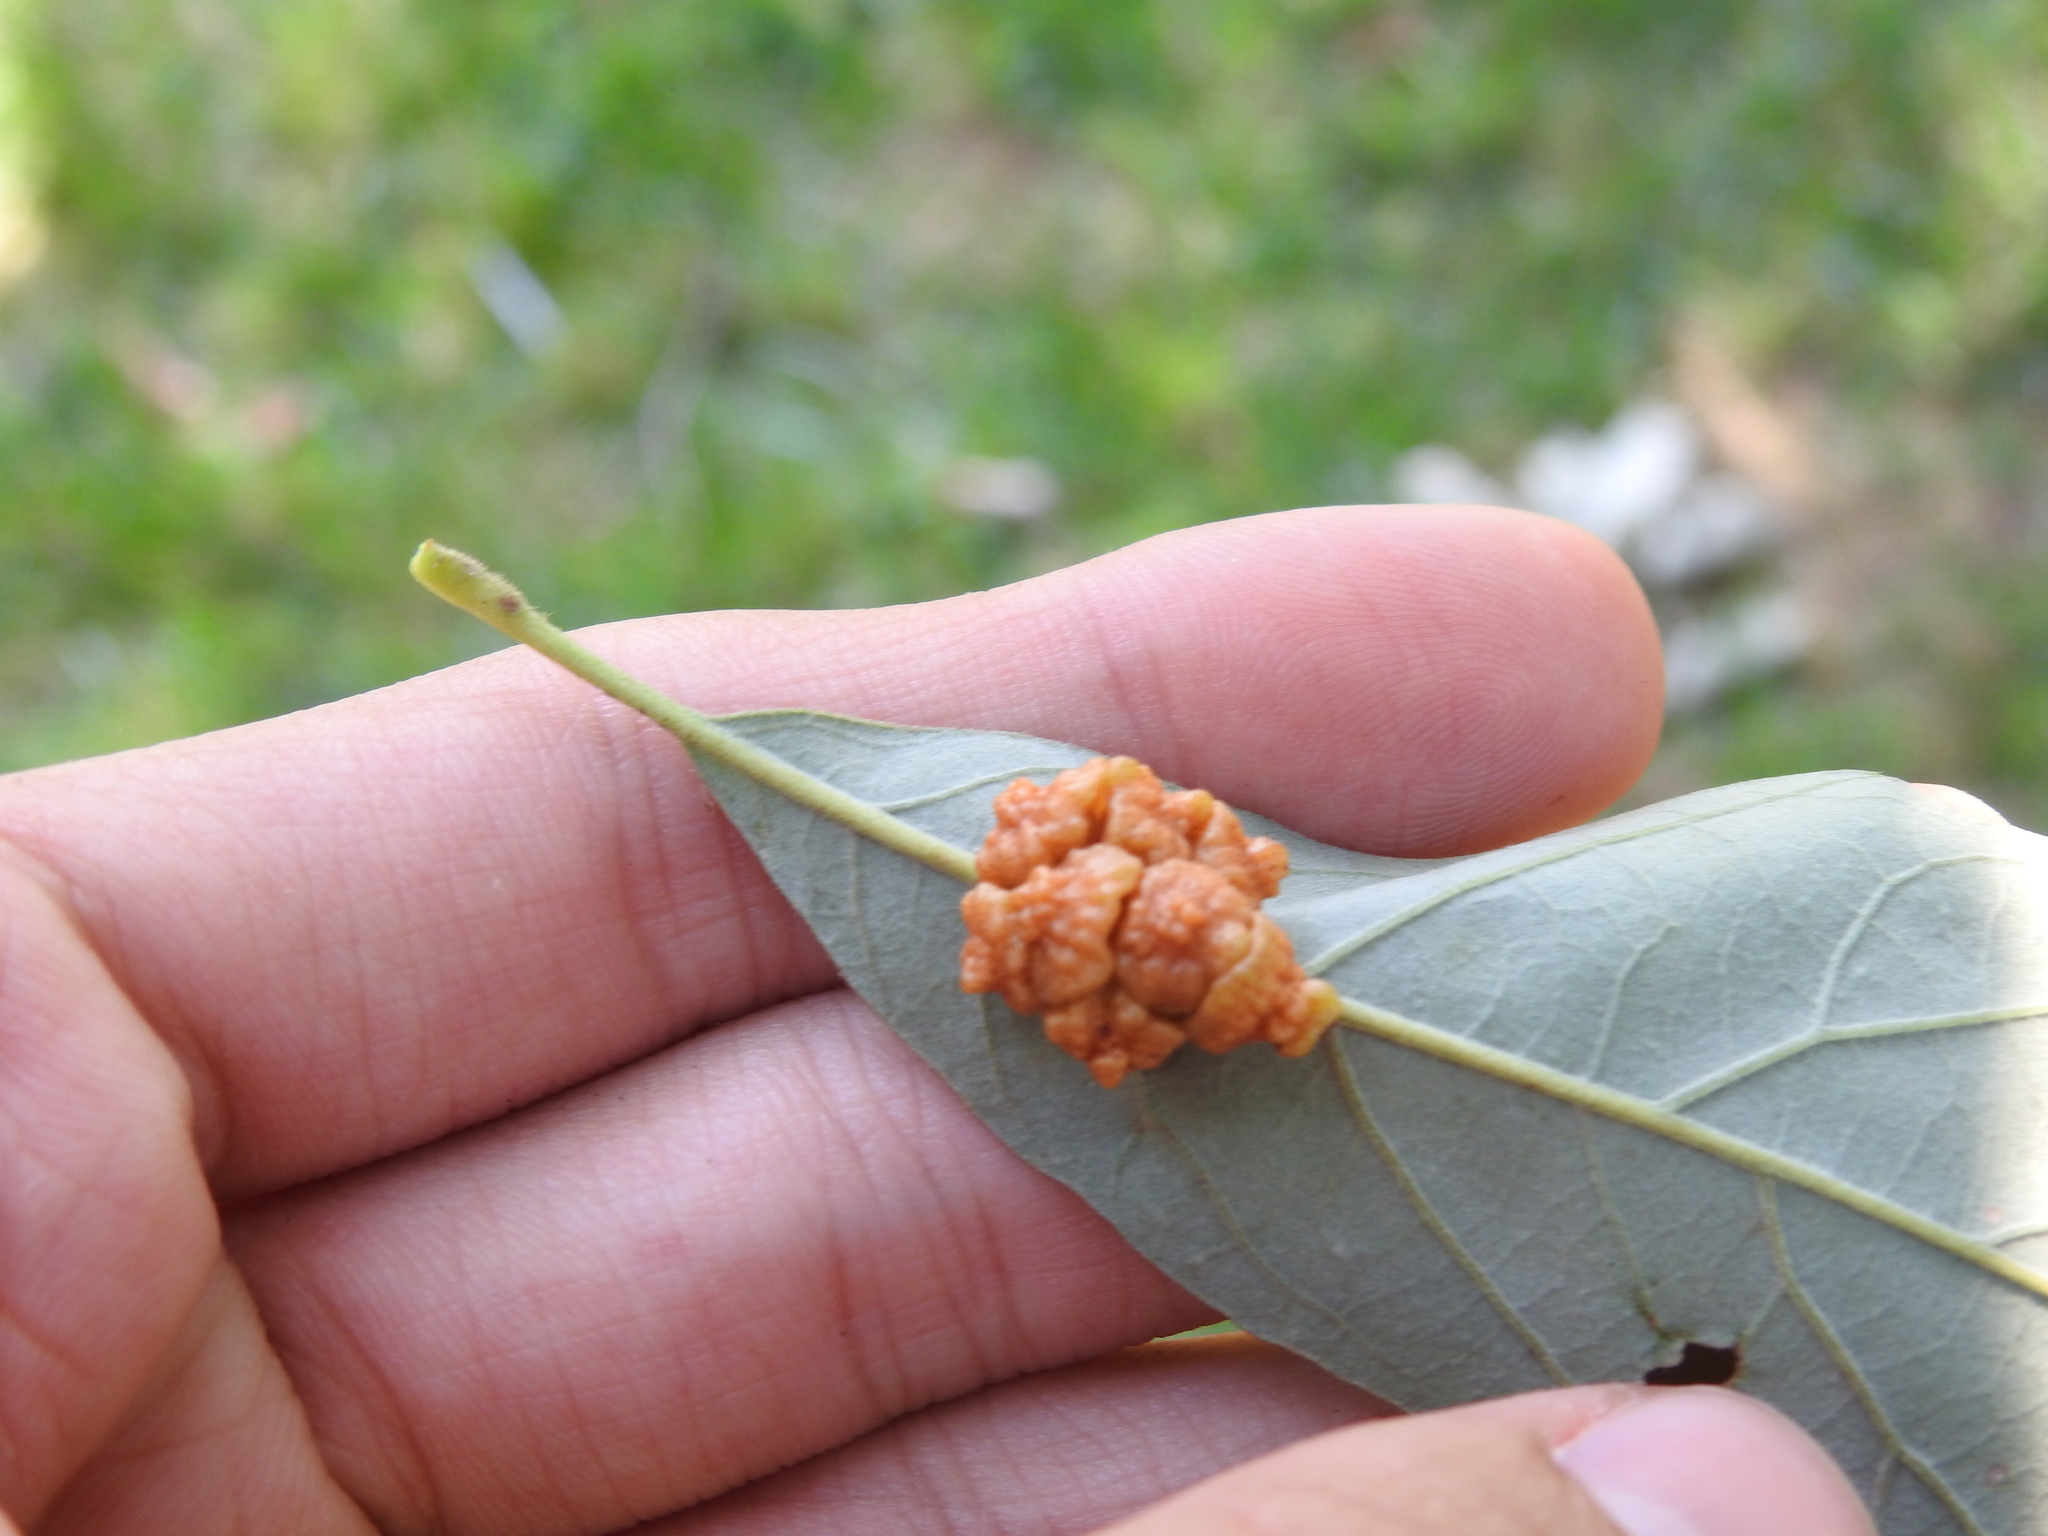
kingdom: Animalia
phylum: Arthropoda
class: Insecta
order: Hymenoptera
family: Cynipidae
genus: Andricus
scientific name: Andricus
